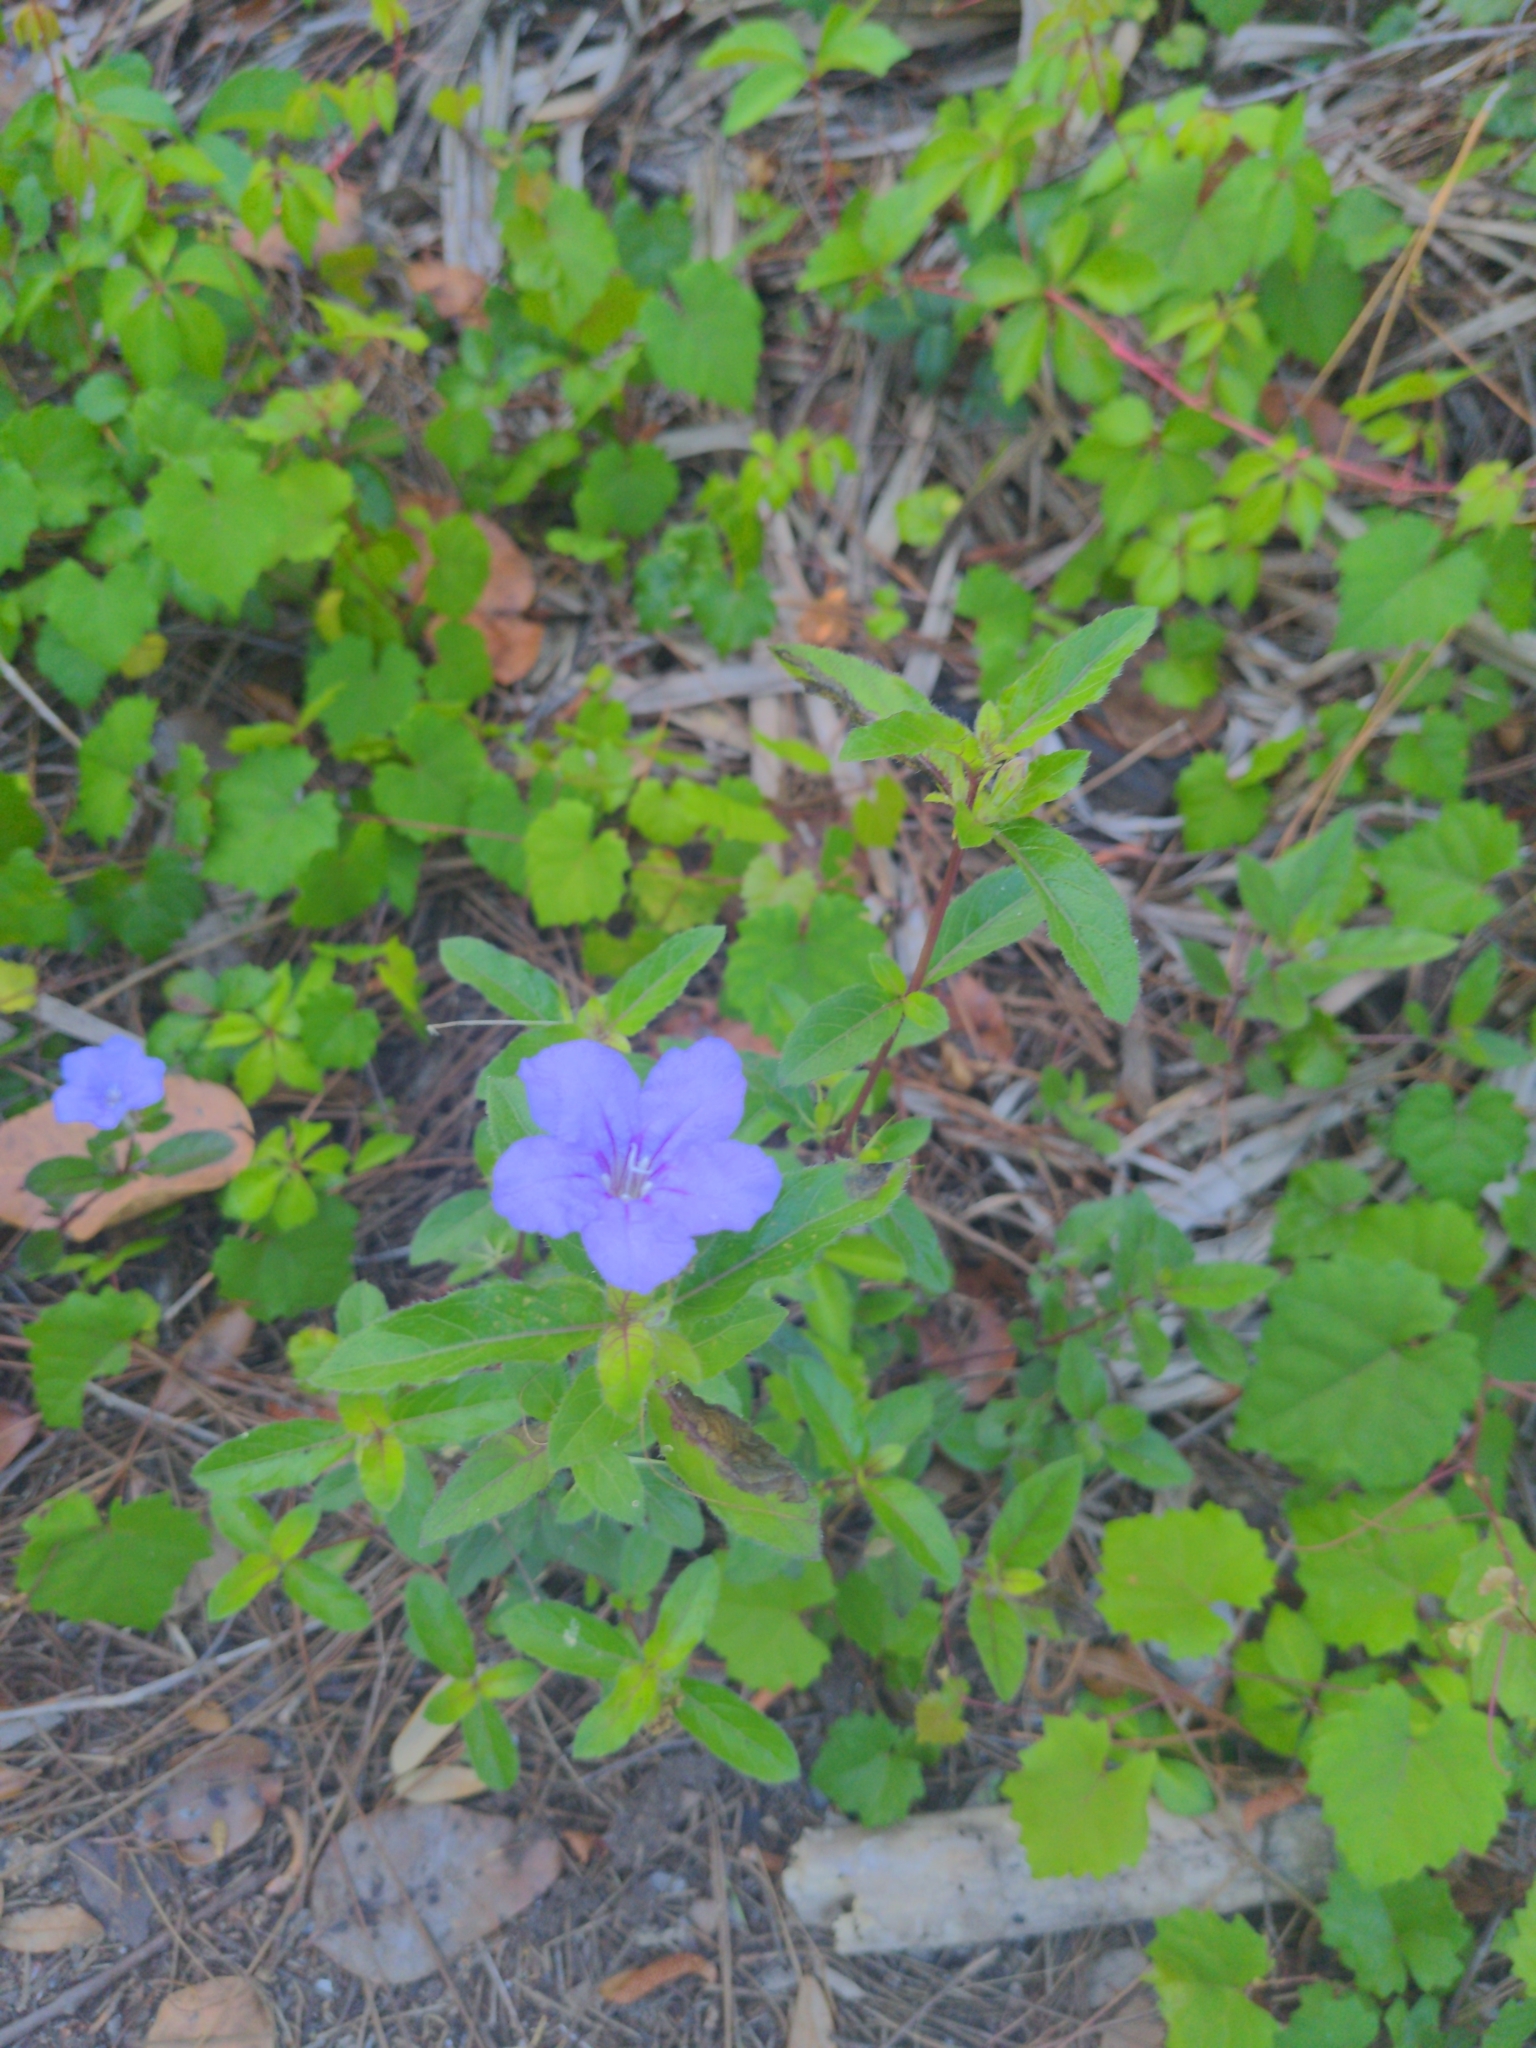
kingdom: Plantae
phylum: Tracheophyta
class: Magnoliopsida
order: Lamiales
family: Acanthaceae
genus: Ruellia
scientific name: Ruellia caroliniensis
